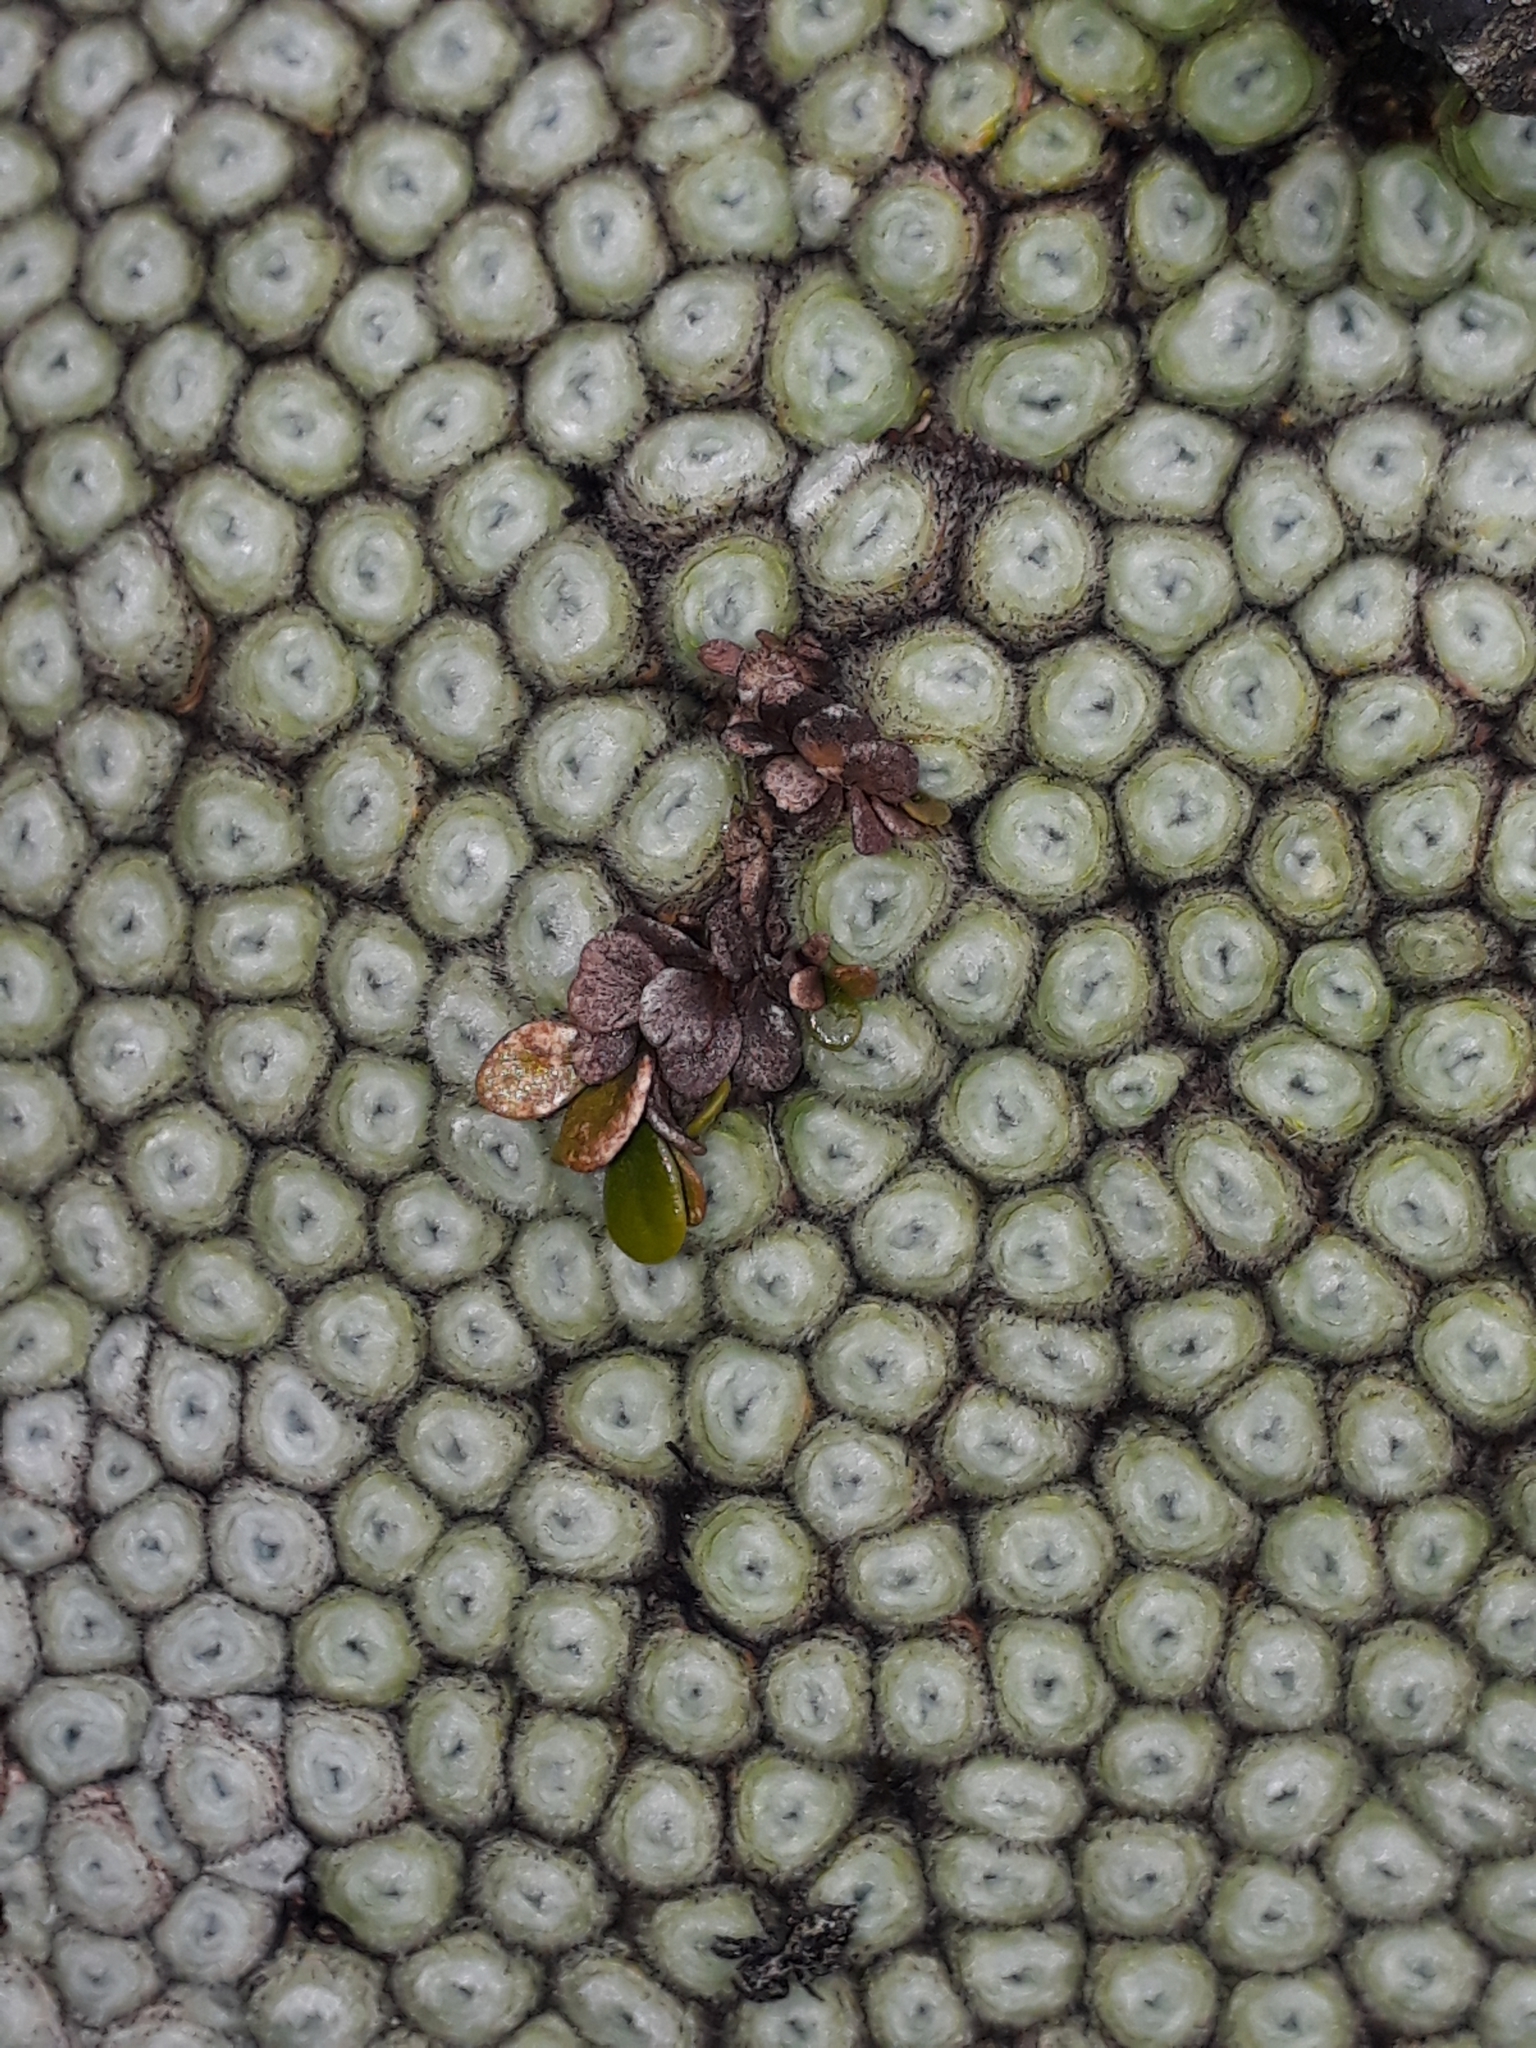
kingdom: Plantae
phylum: Tracheophyta
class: Polypodiopsida
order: Polypodiales
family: Polypodiaceae
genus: Notogrammitis
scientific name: Notogrammitis crassior
